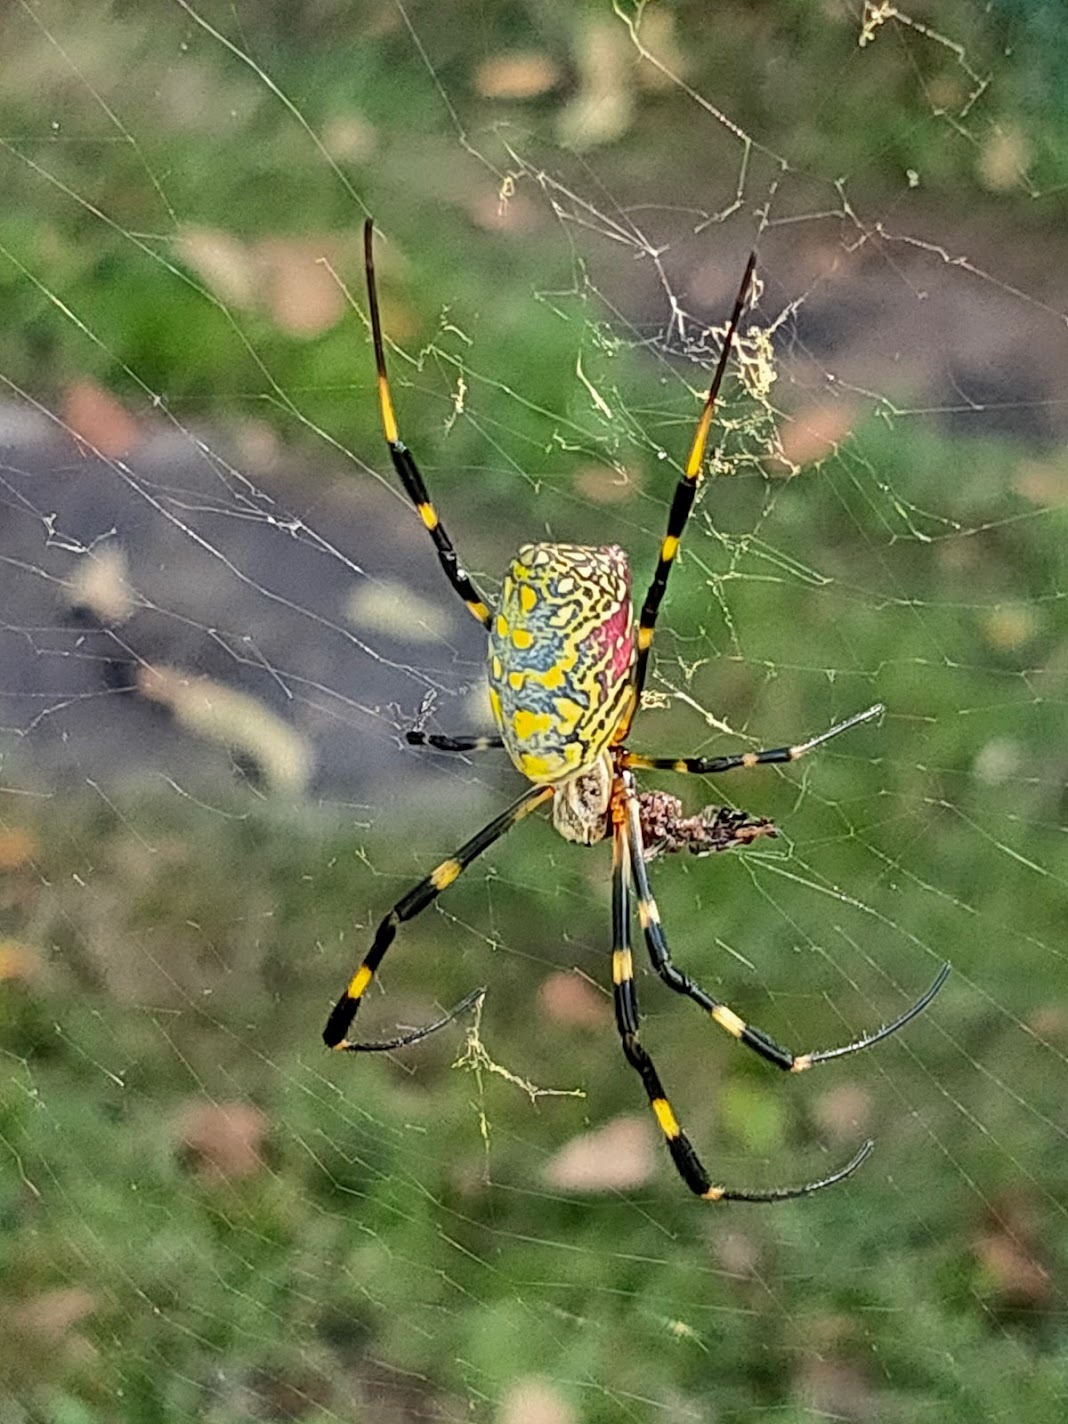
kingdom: Animalia
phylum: Arthropoda
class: Arachnida
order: Araneae
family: Araneidae
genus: Trichonephila
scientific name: Trichonephila clavata
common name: Jorō spider
